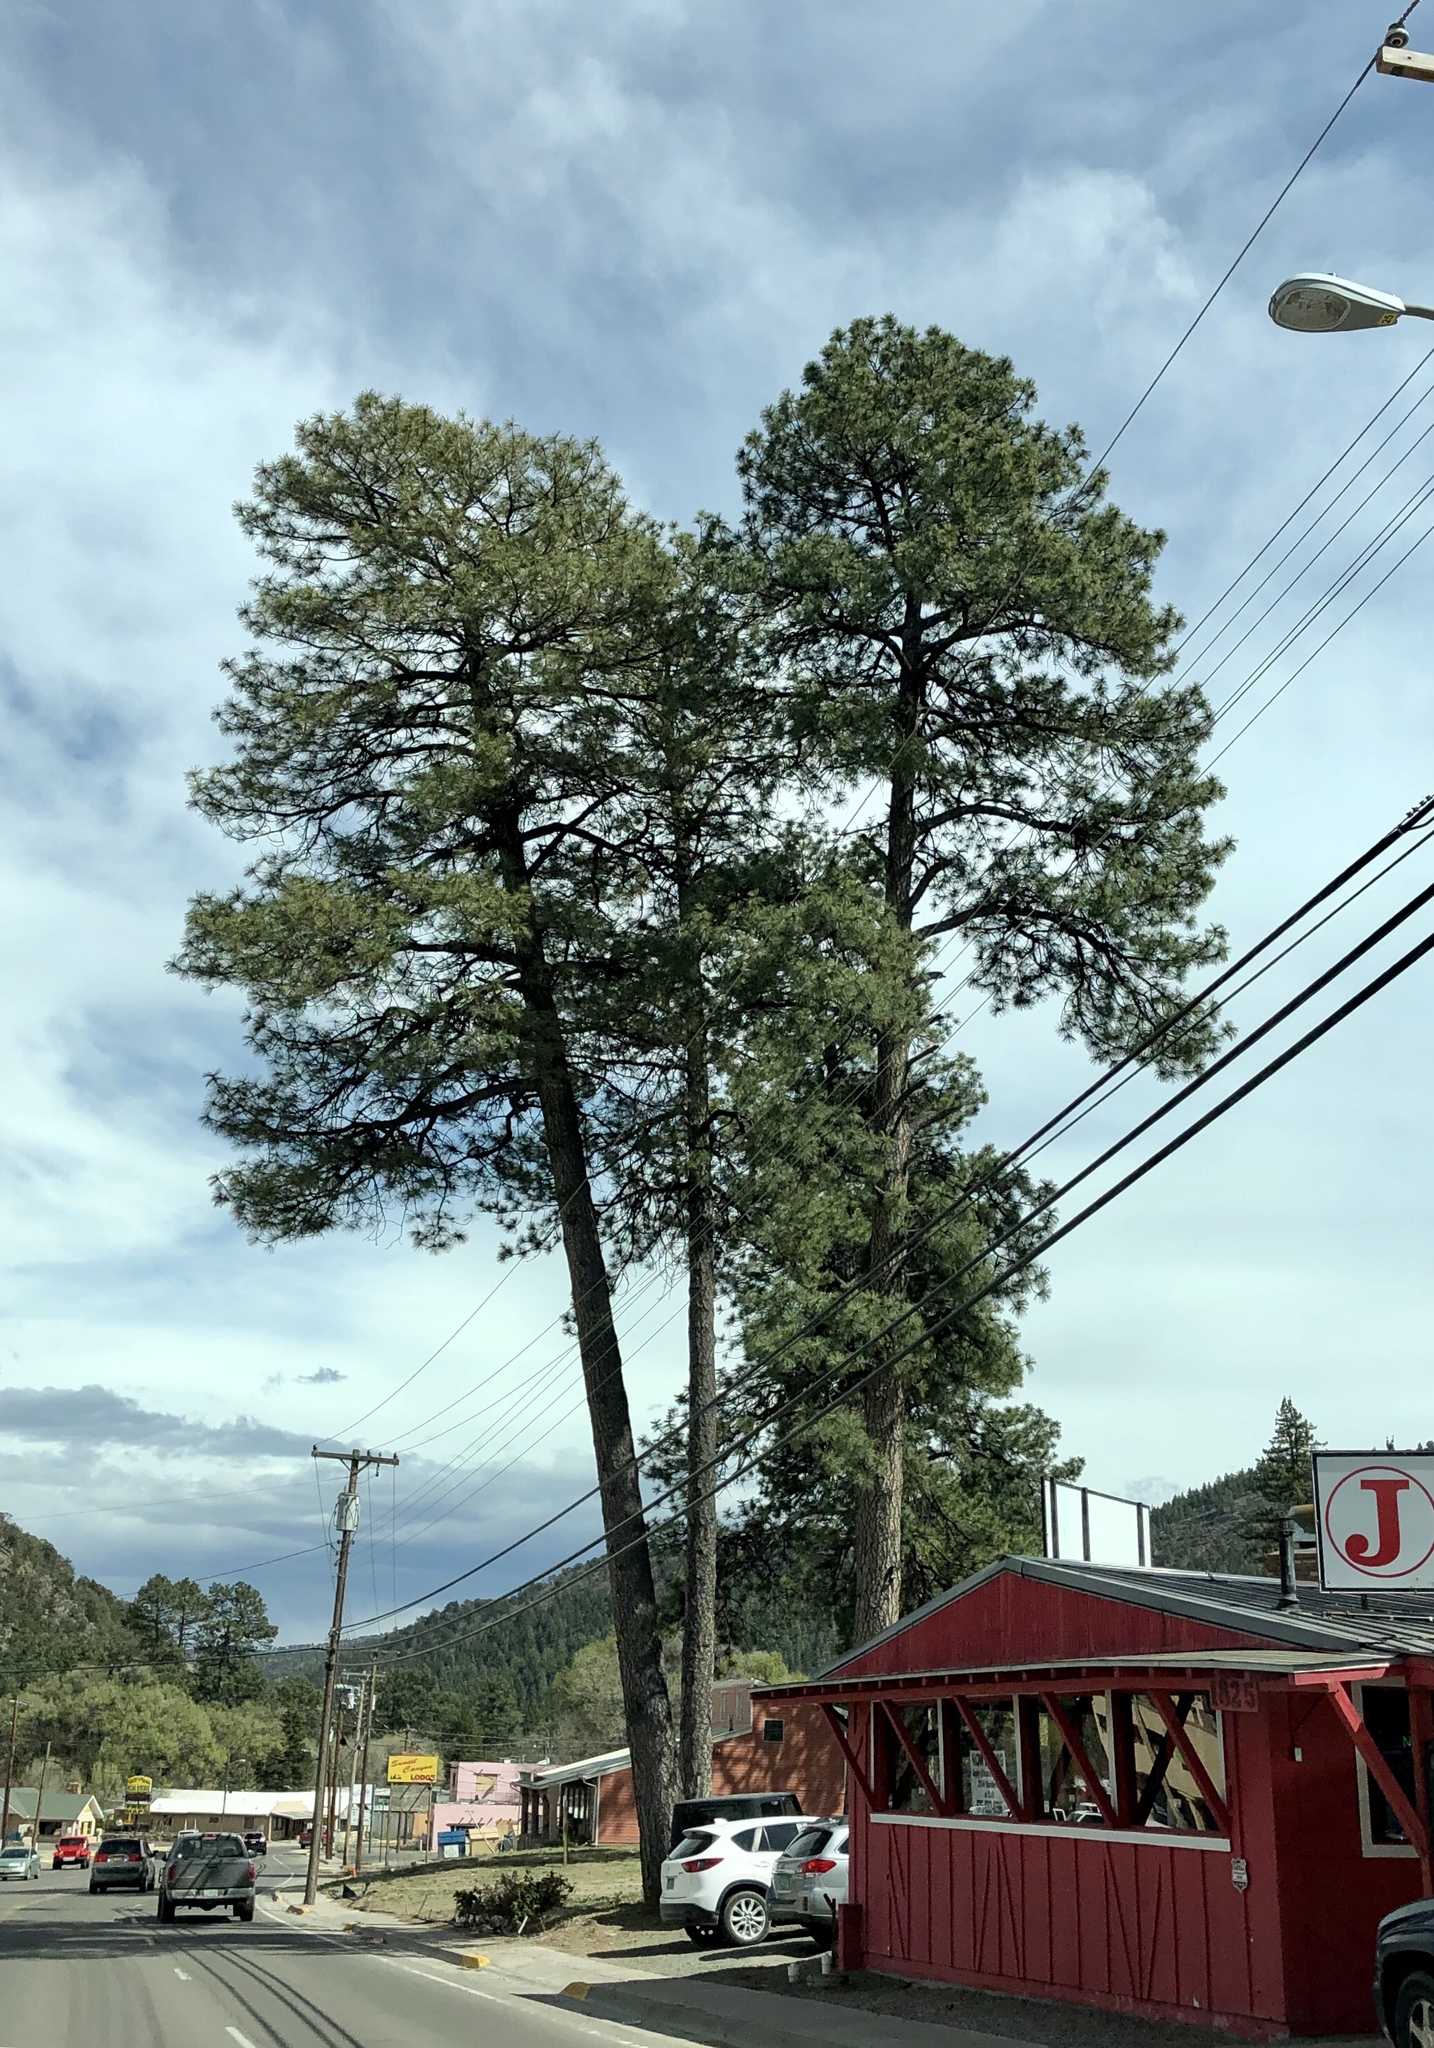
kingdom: Plantae
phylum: Tracheophyta
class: Pinopsida
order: Pinales
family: Pinaceae
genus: Pinus
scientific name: Pinus ponderosa
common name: Western yellow-pine
